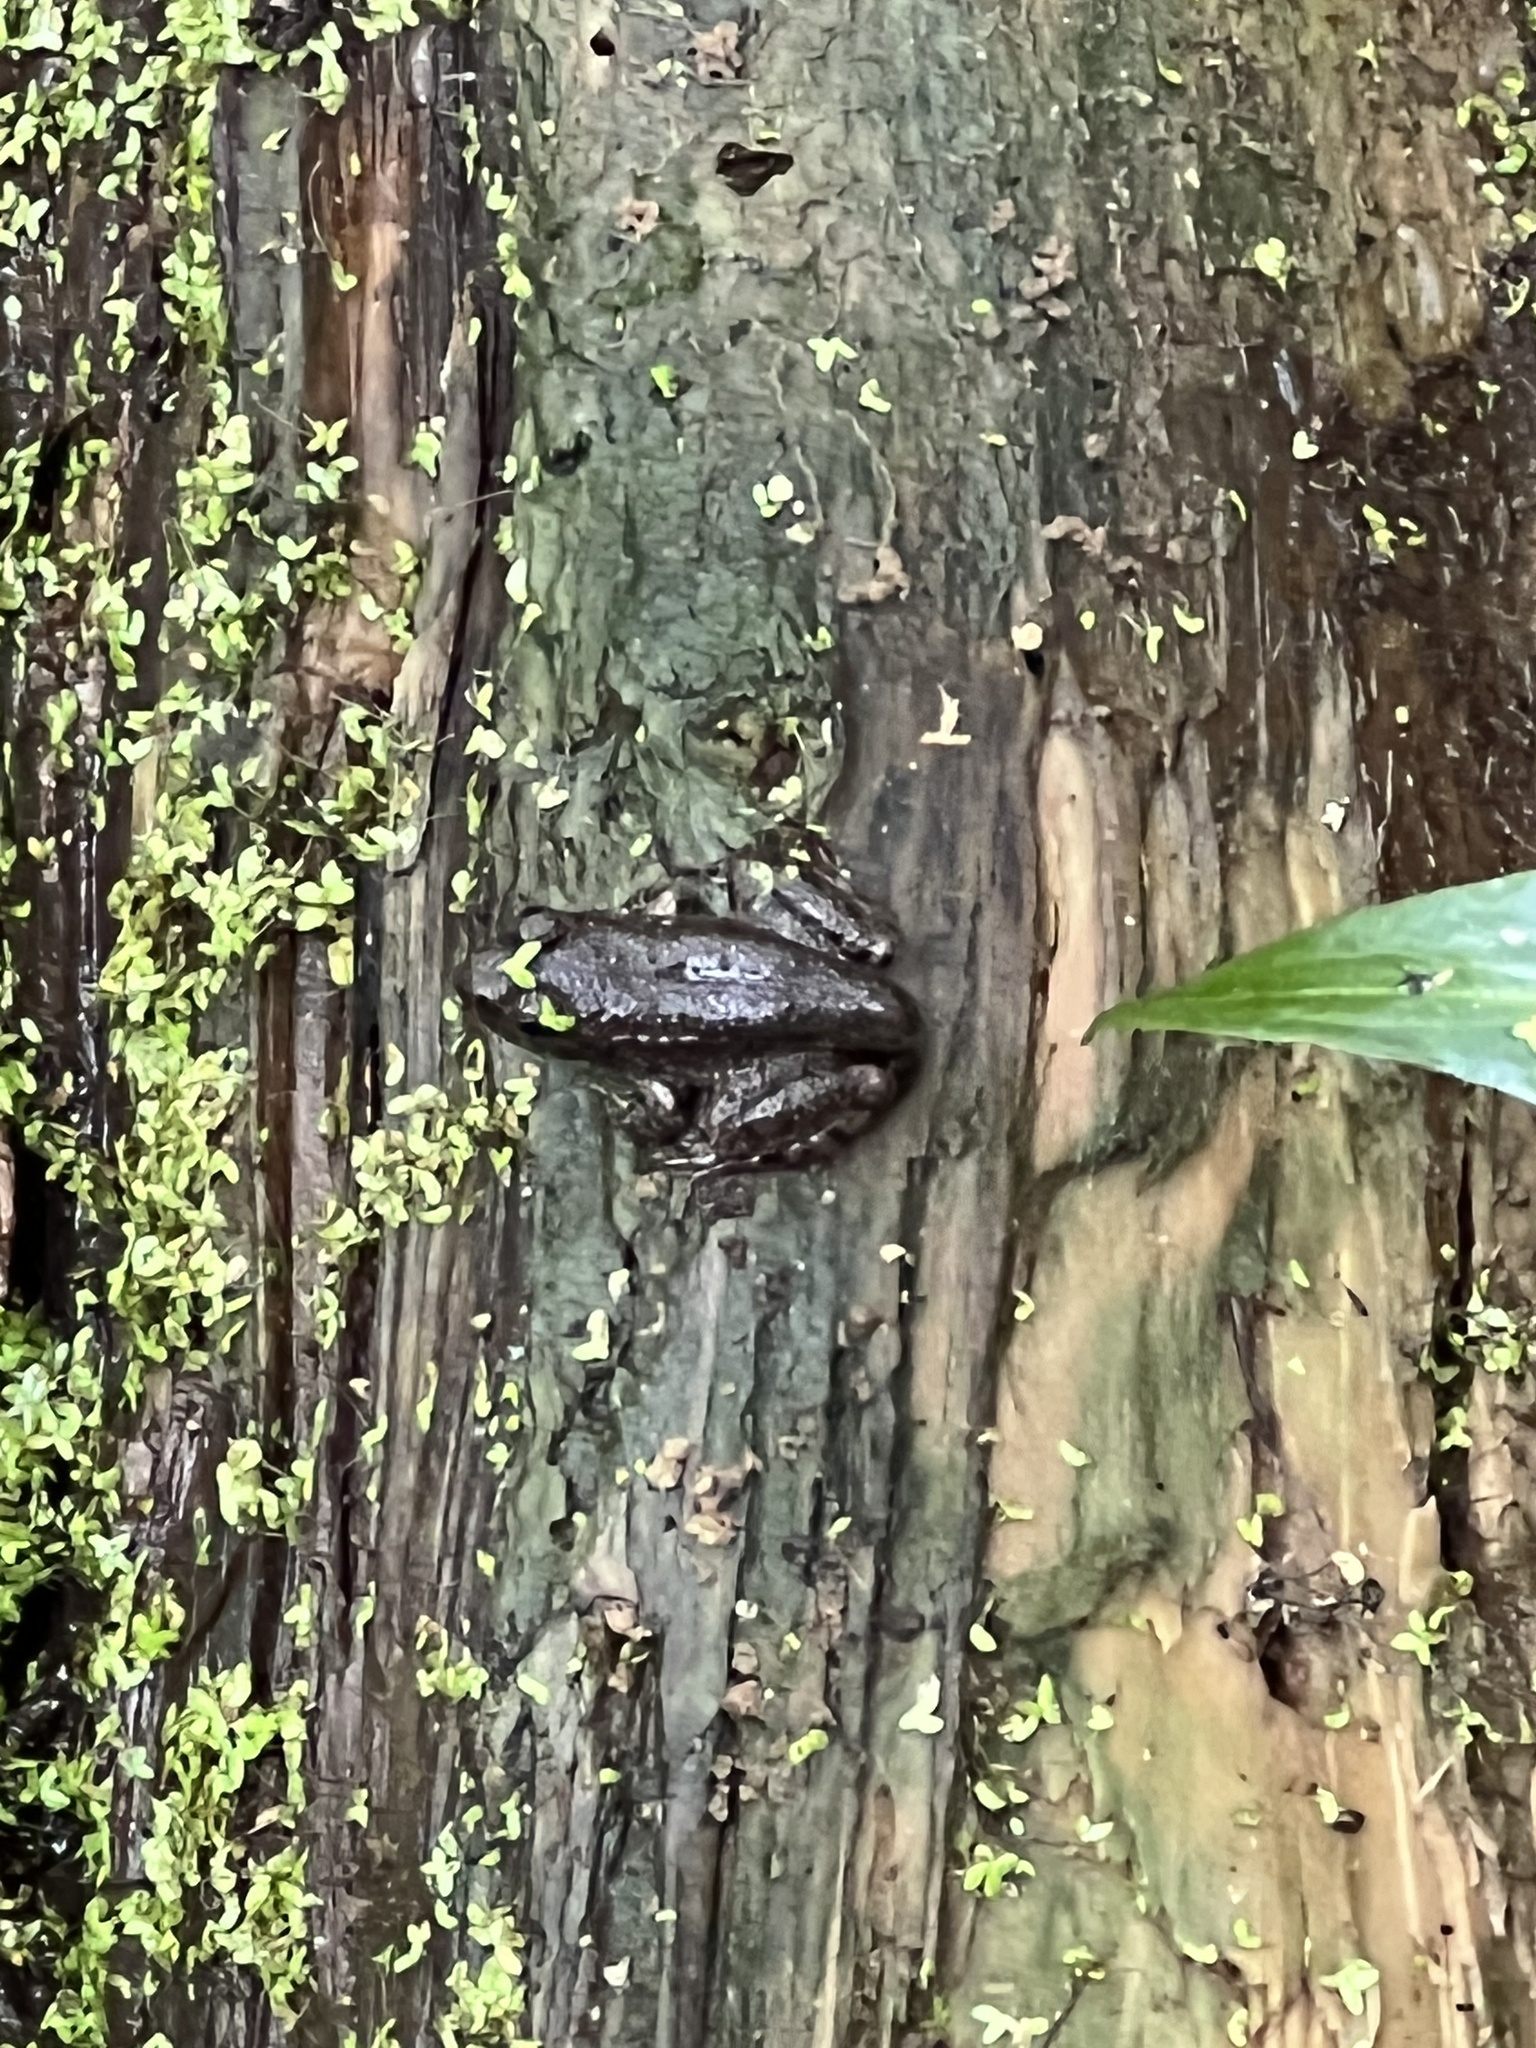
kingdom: Animalia
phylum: Chordata
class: Amphibia
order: Anura
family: Ranidae
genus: Lithobates
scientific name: Lithobates clamitans
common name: Green frog
